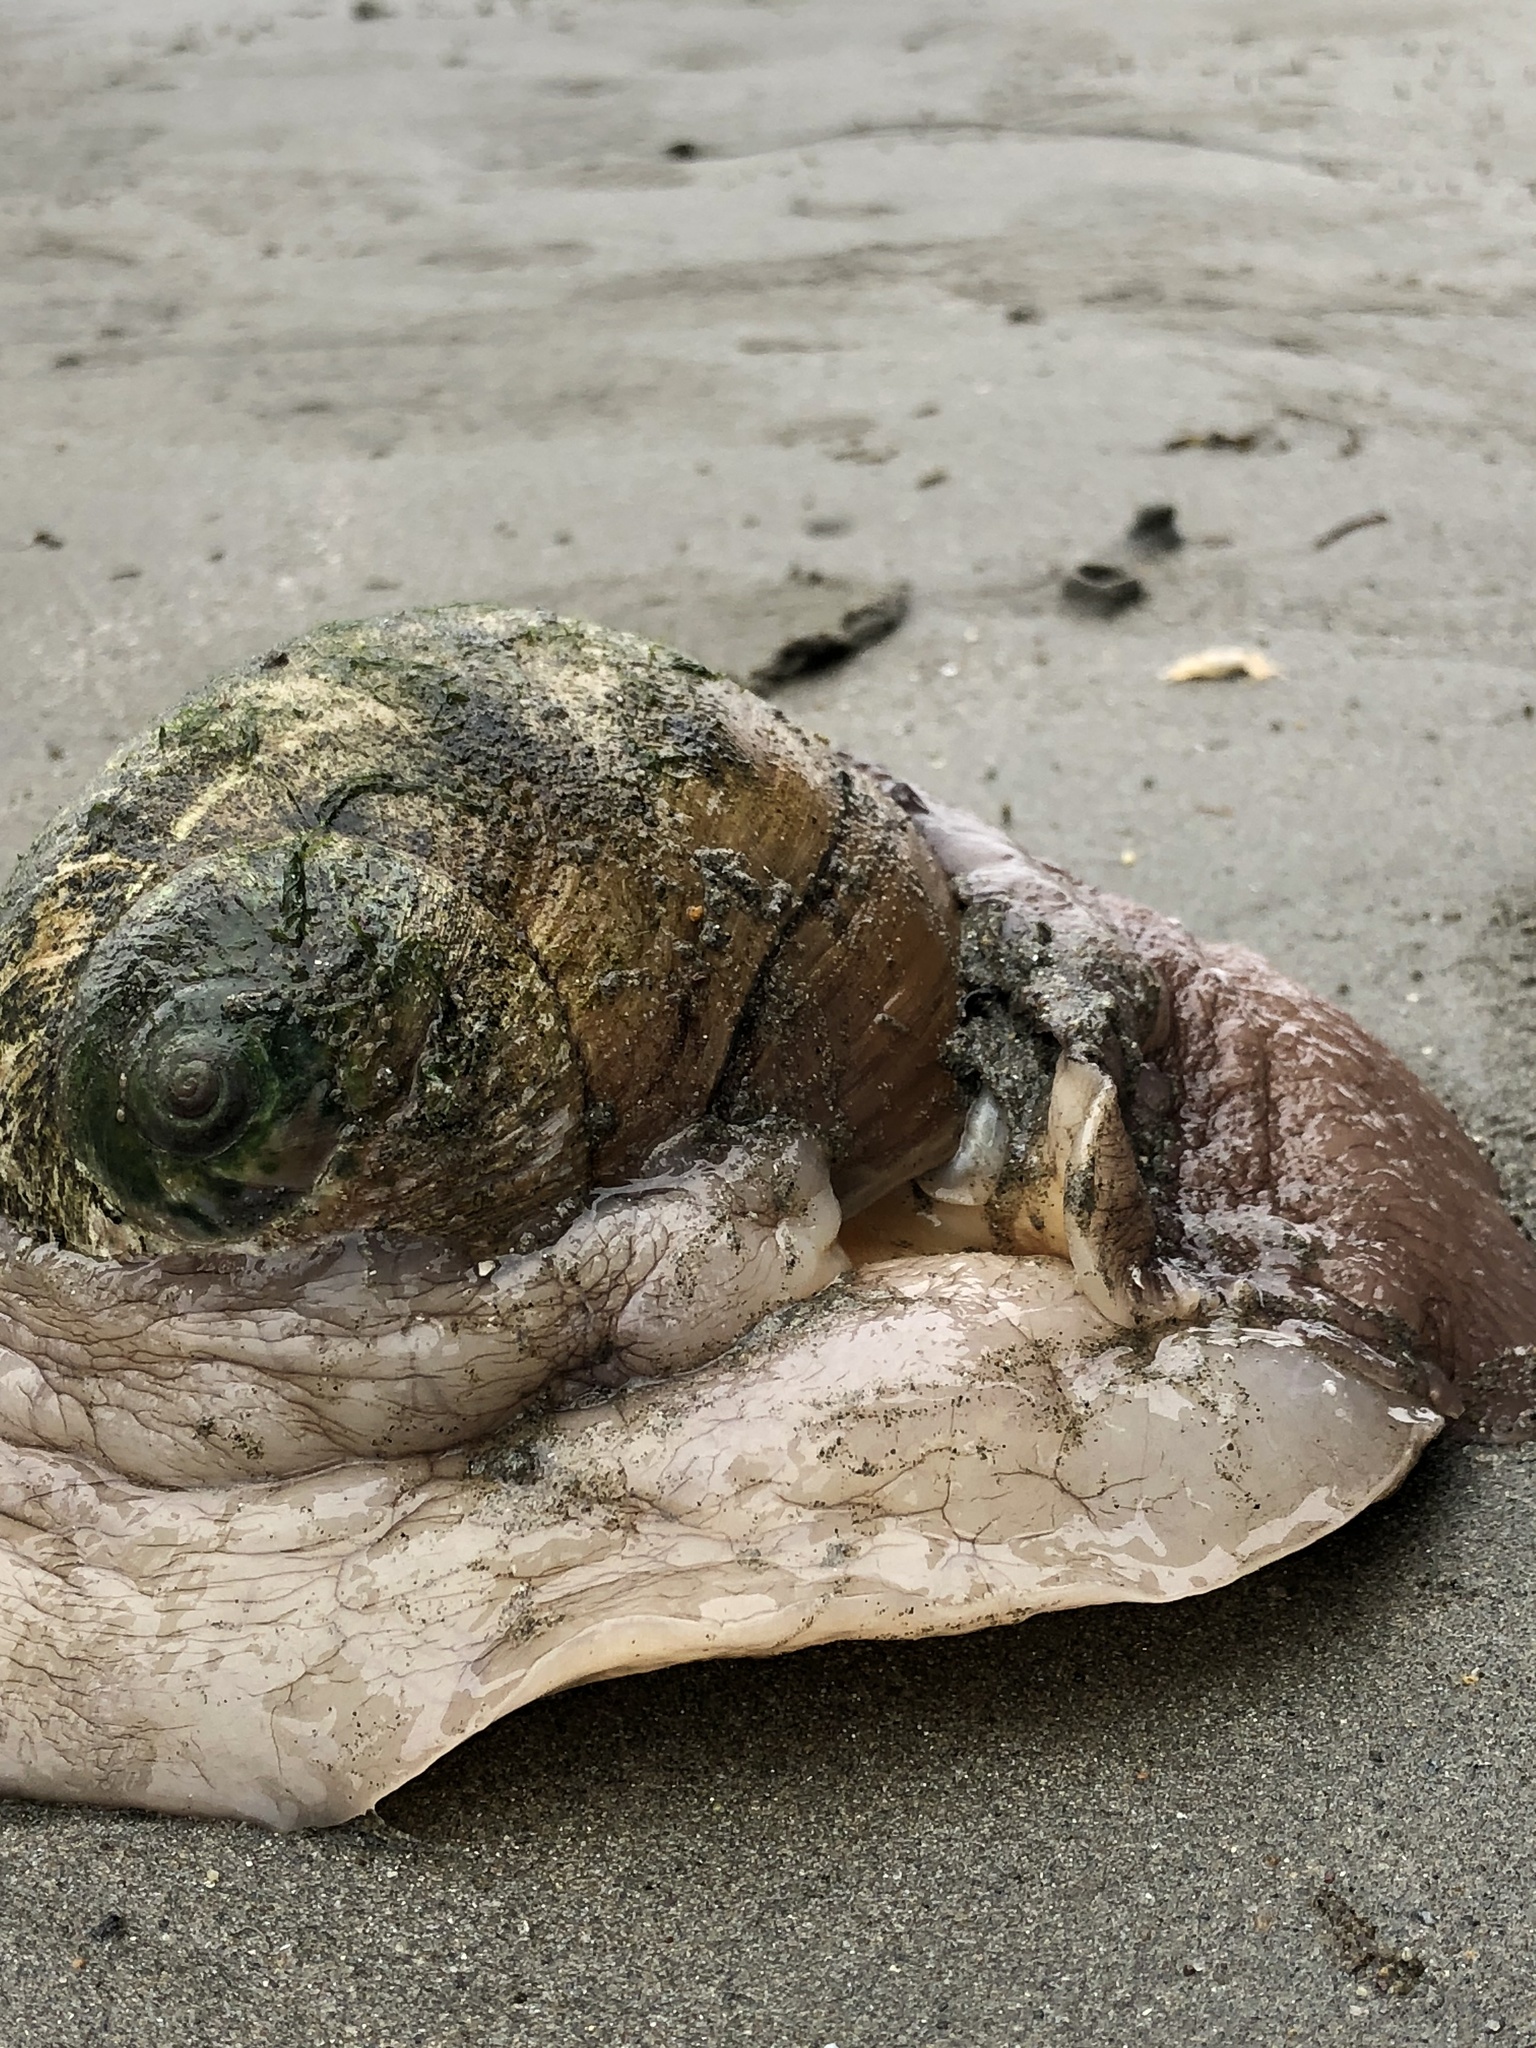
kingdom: Animalia
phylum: Mollusca
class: Gastropoda
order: Littorinimorpha
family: Naticidae
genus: Neverita
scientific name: Neverita lewisii
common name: Lewis' moonsnail
